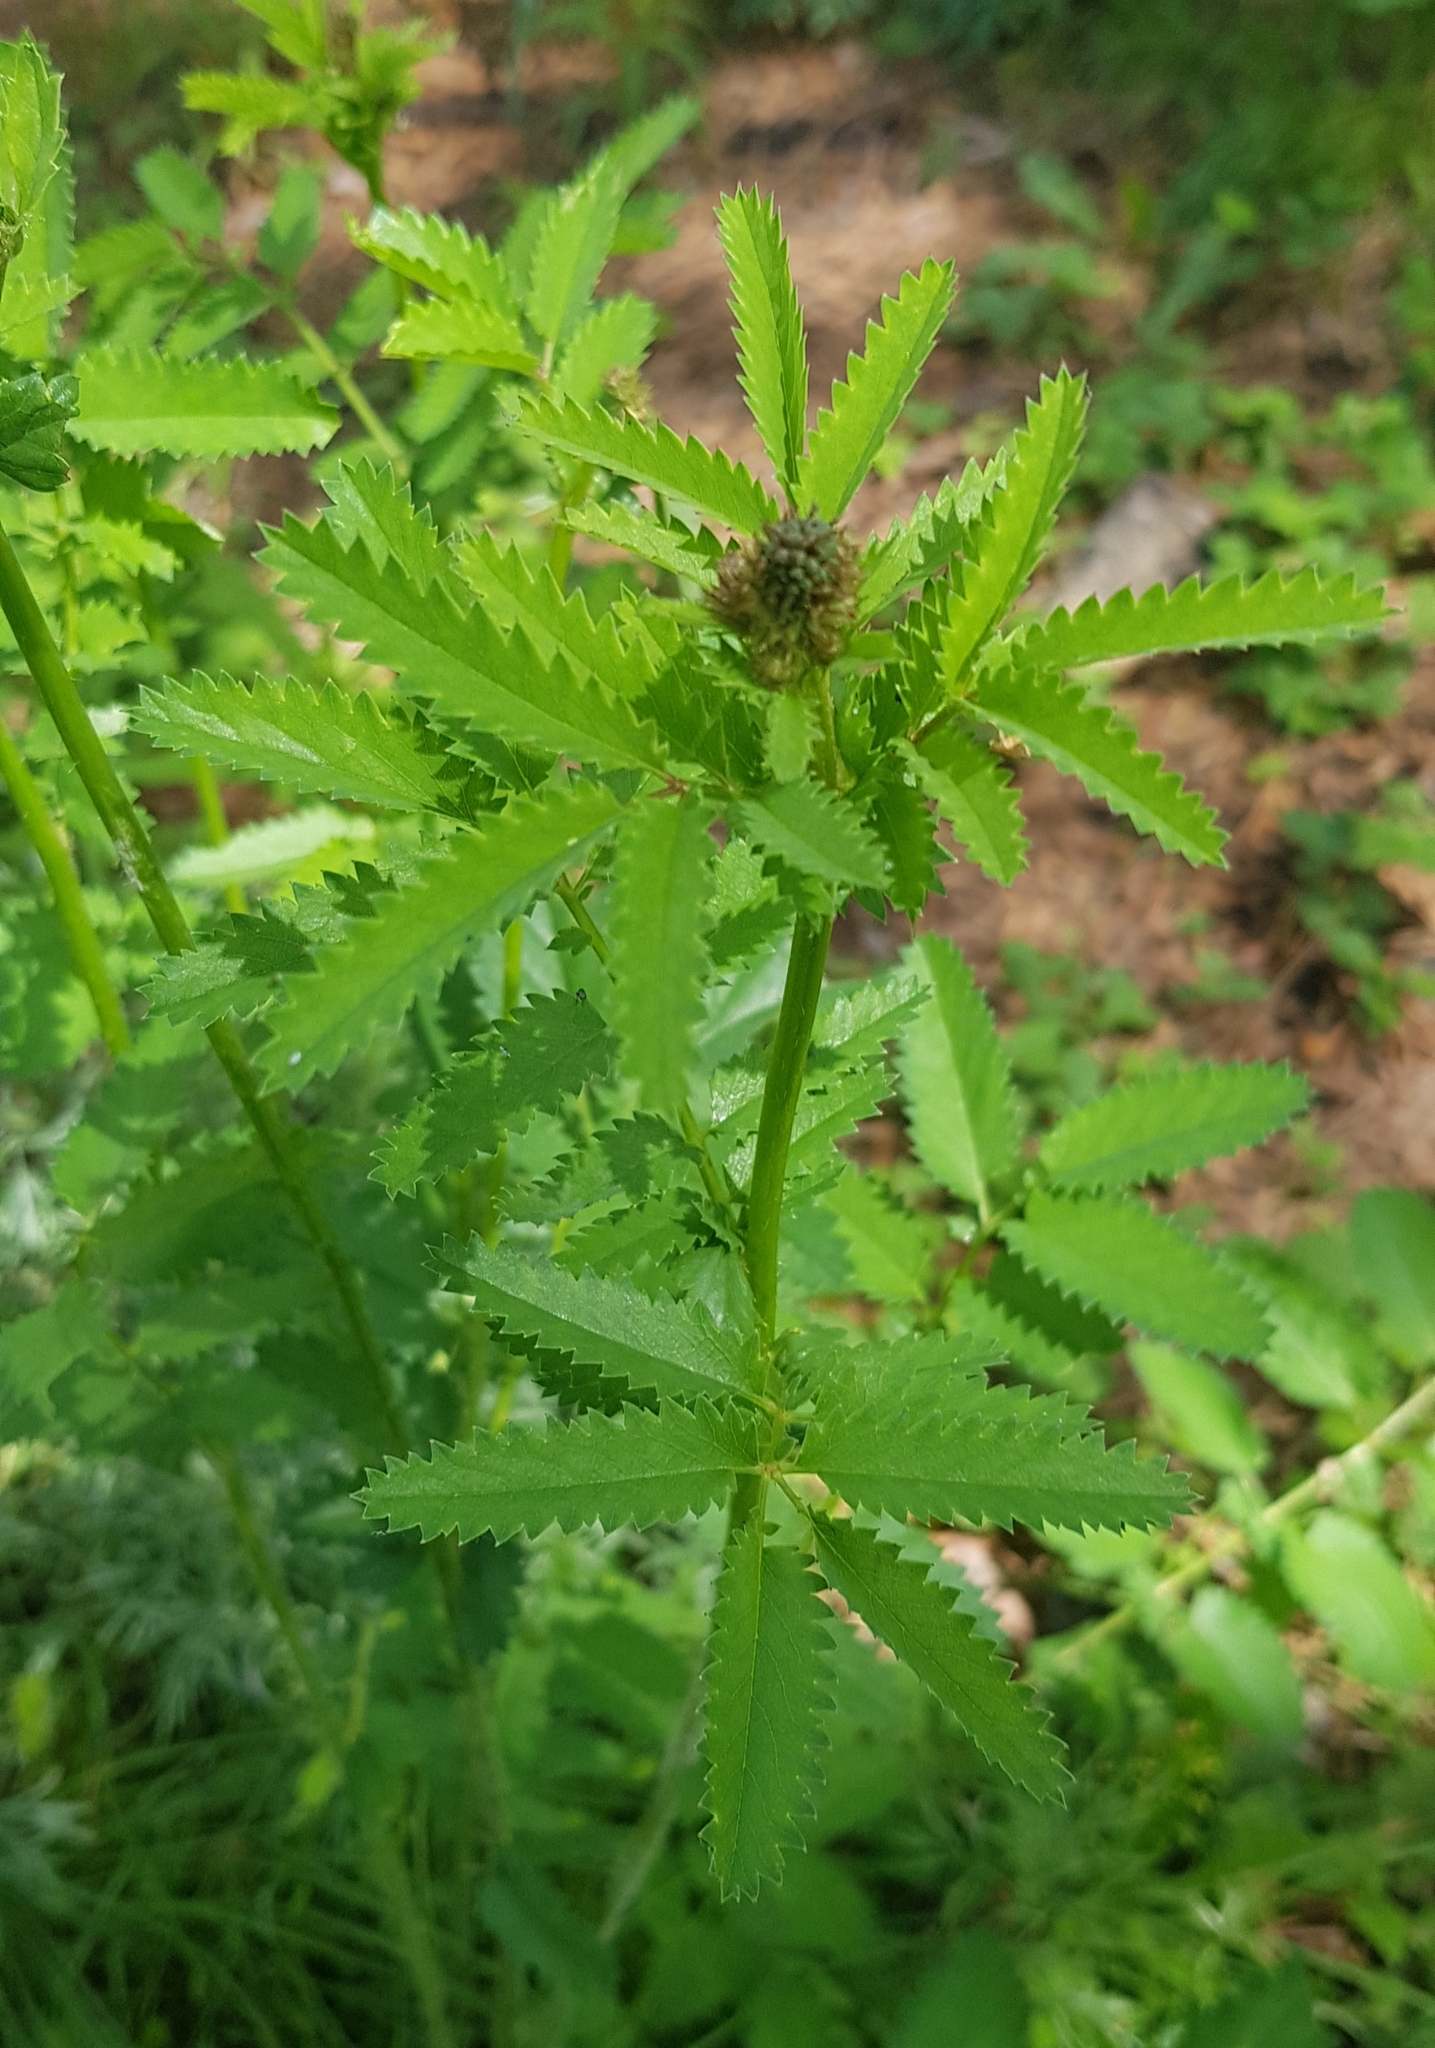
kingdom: Plantae
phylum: Tracheophyta
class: Magnoliopsida
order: Rosales
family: Rosaceae
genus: Sanguisorba
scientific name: Sanguisorba officinalis
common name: Great burnet
